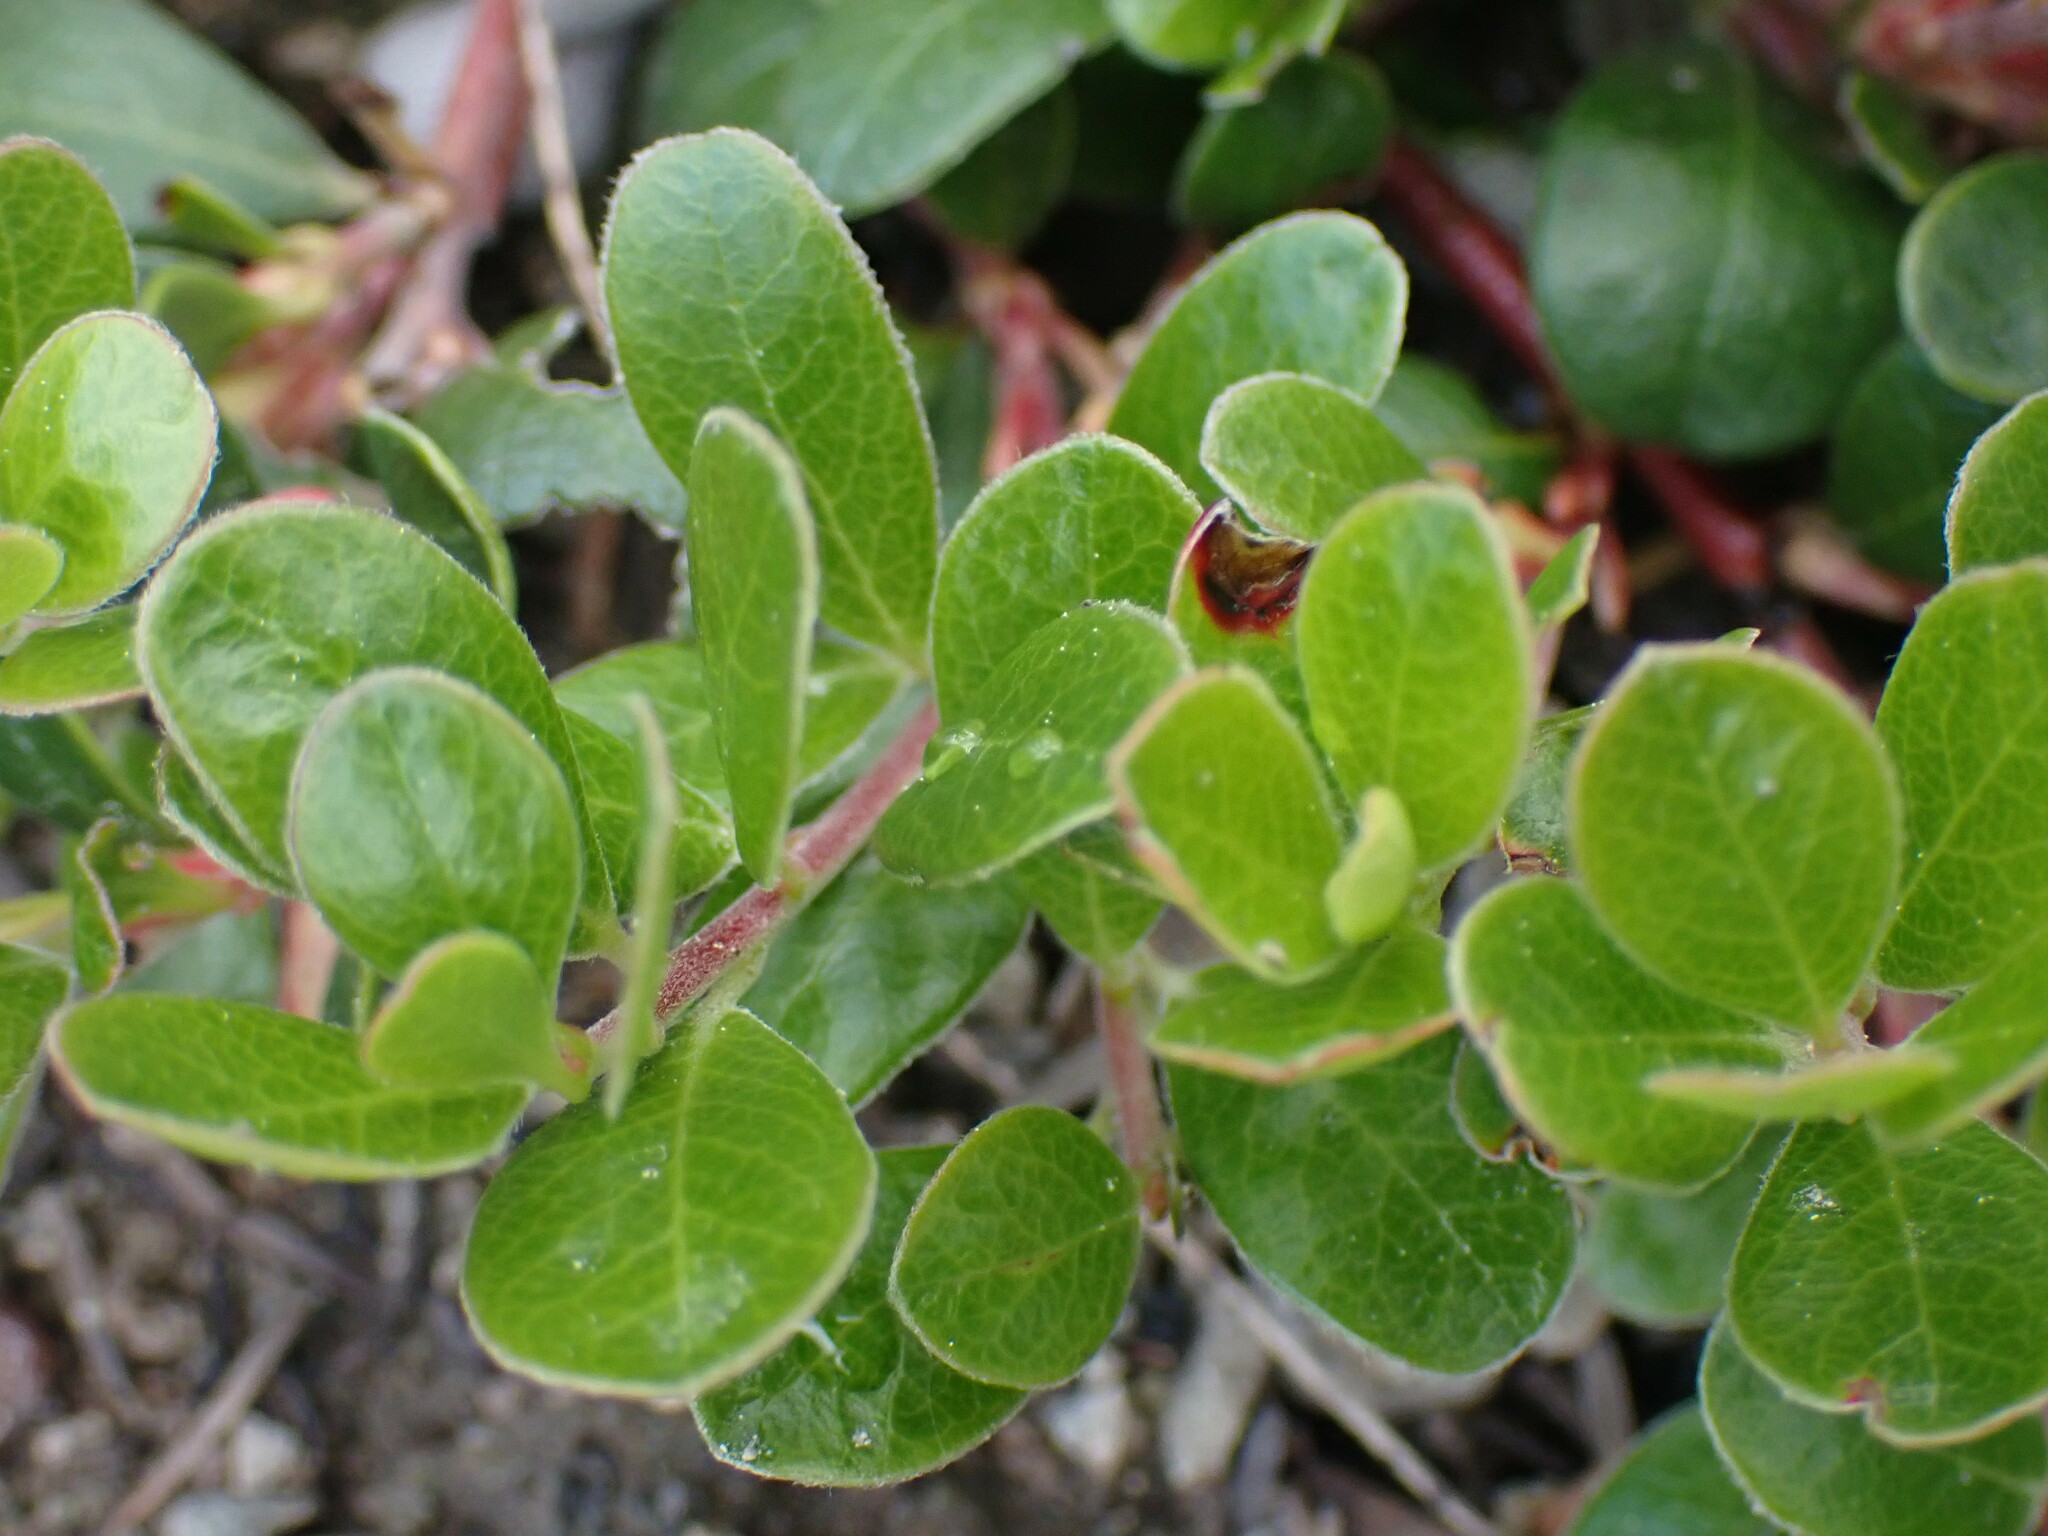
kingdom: Plantae
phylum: Tracheophyta
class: Magnoliopsida
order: Ericales
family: Ericaceae
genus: Arctostaphylos
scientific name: Arctostaphylos uva-ursi
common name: Bearberry
